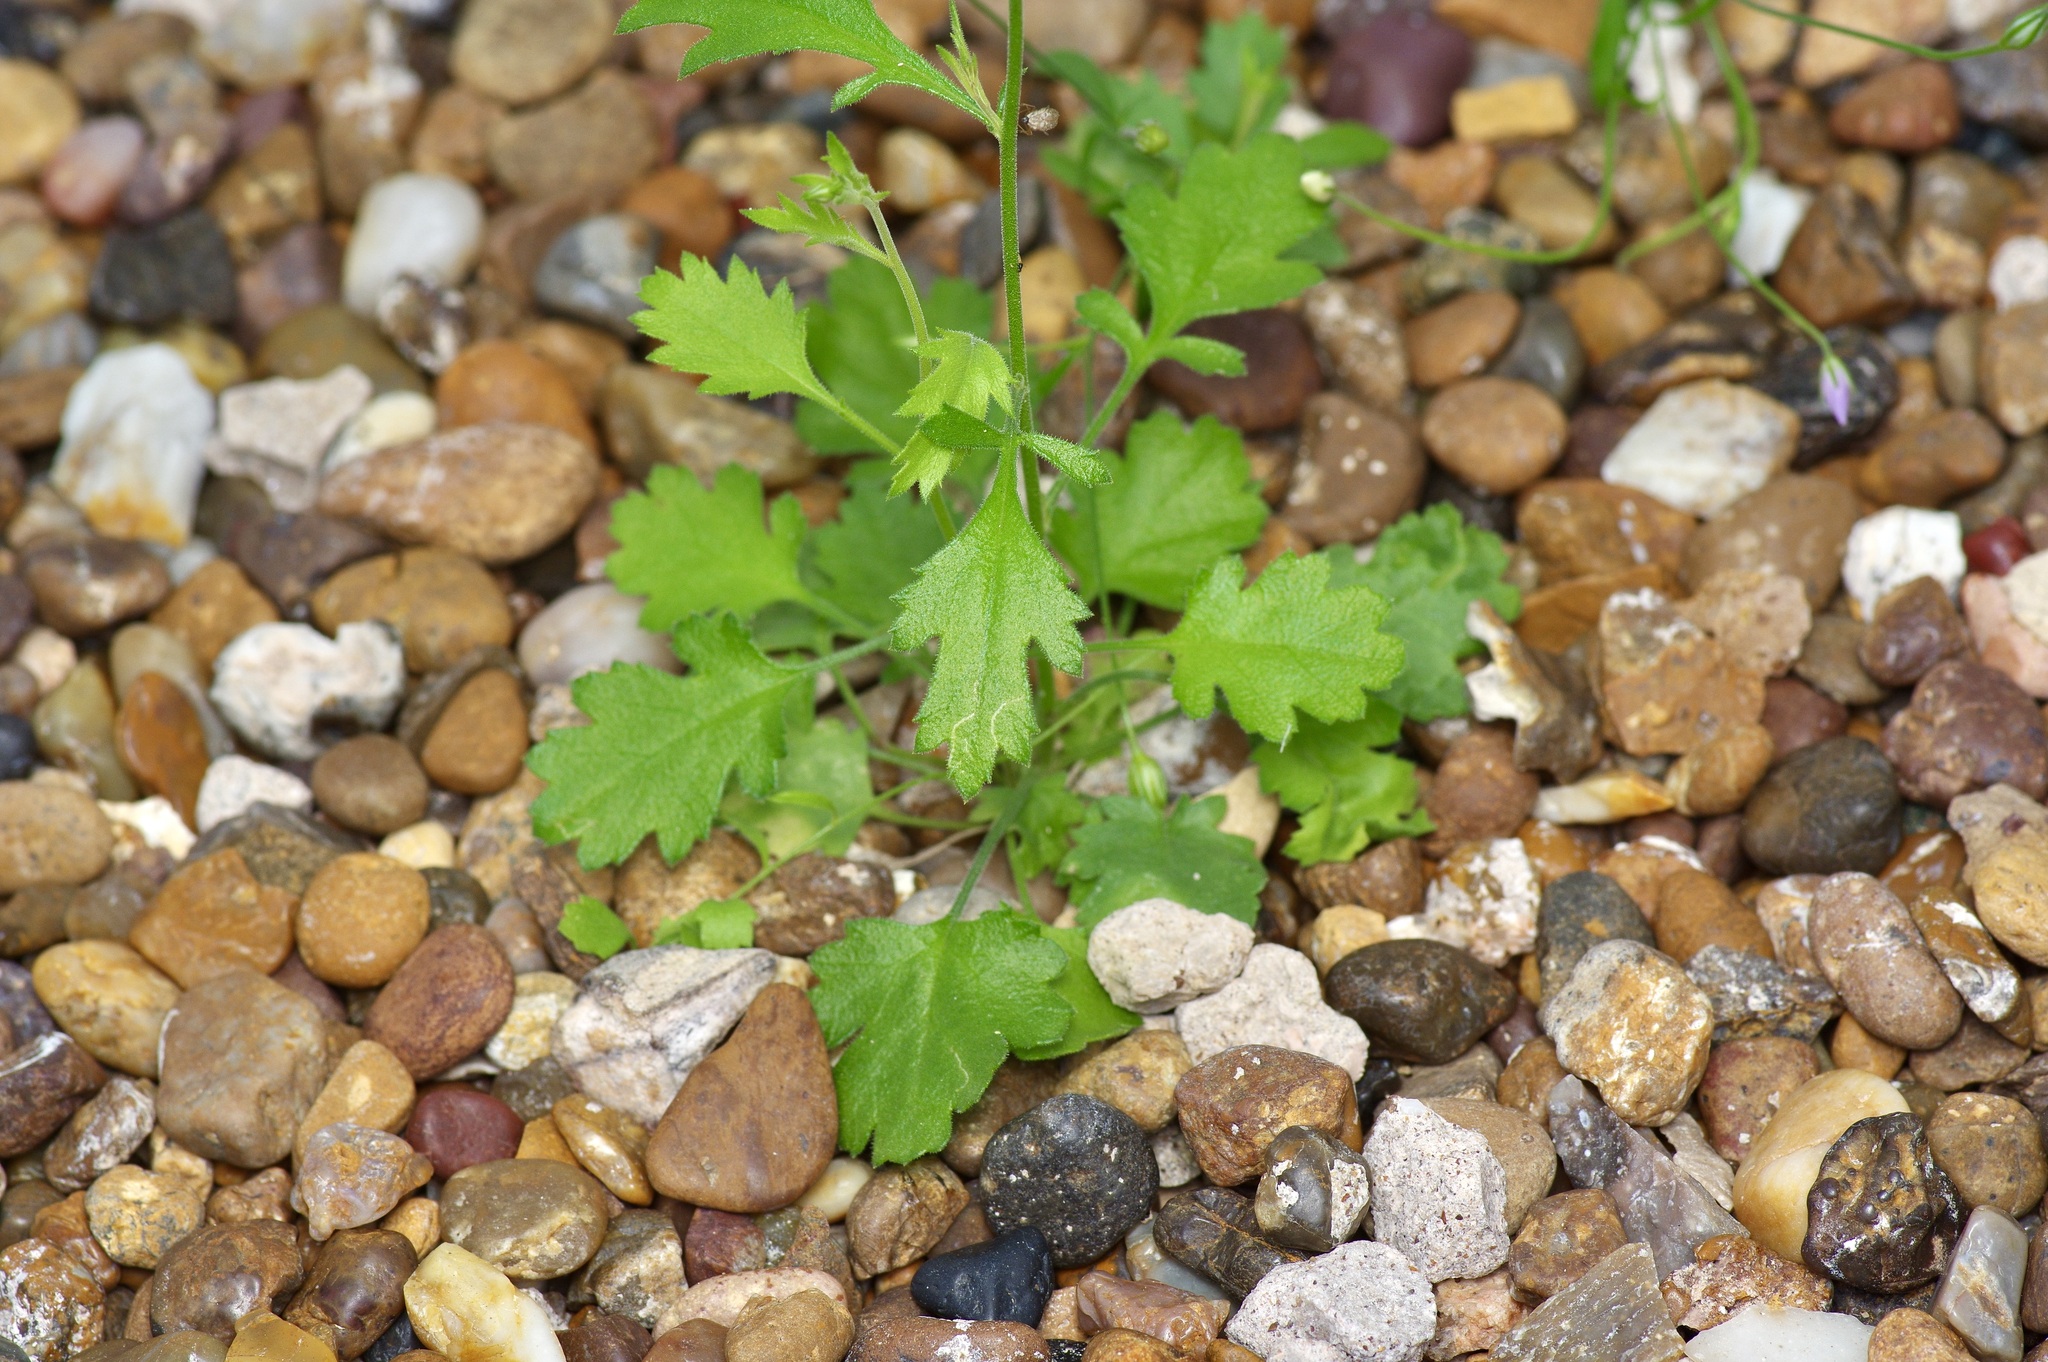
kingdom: Plantae
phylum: Tracheophyta
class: Magnoliopsida
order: Ericales
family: Polemoniaceae
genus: Giliastrum
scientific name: Giliastrum incisum
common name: Splitleaf gilia
